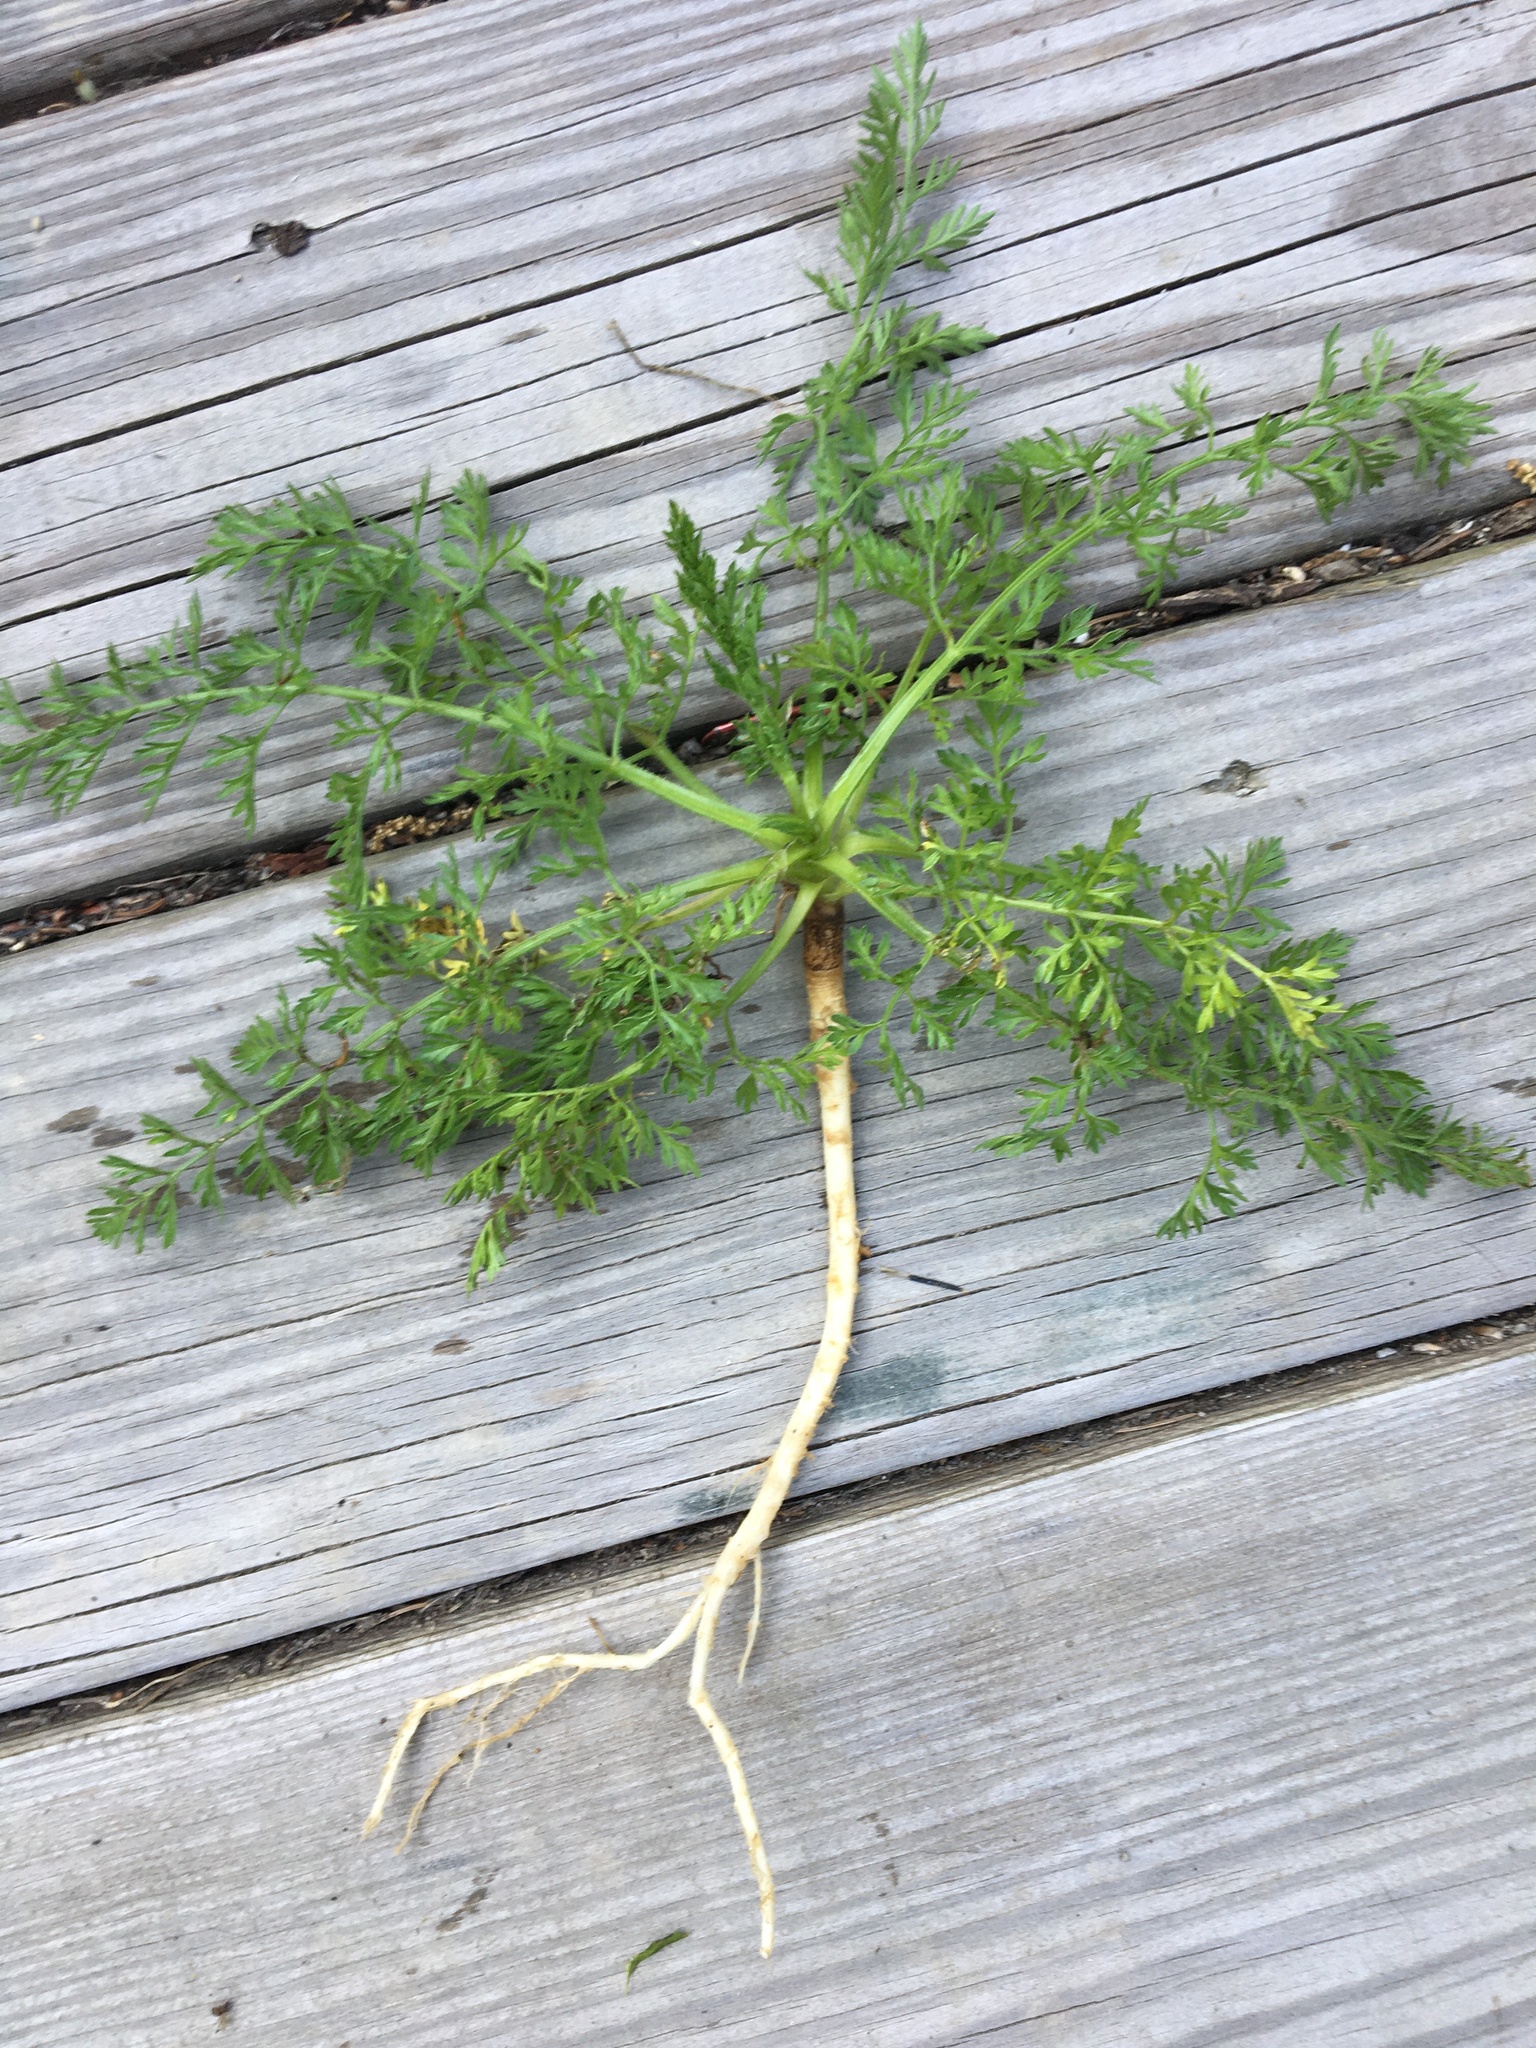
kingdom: Plantae
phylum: Tracheophyta
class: Magnoliopsida
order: Apiales
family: Apiaceae
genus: Daucus
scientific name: Daucus carota
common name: Wild carrot
